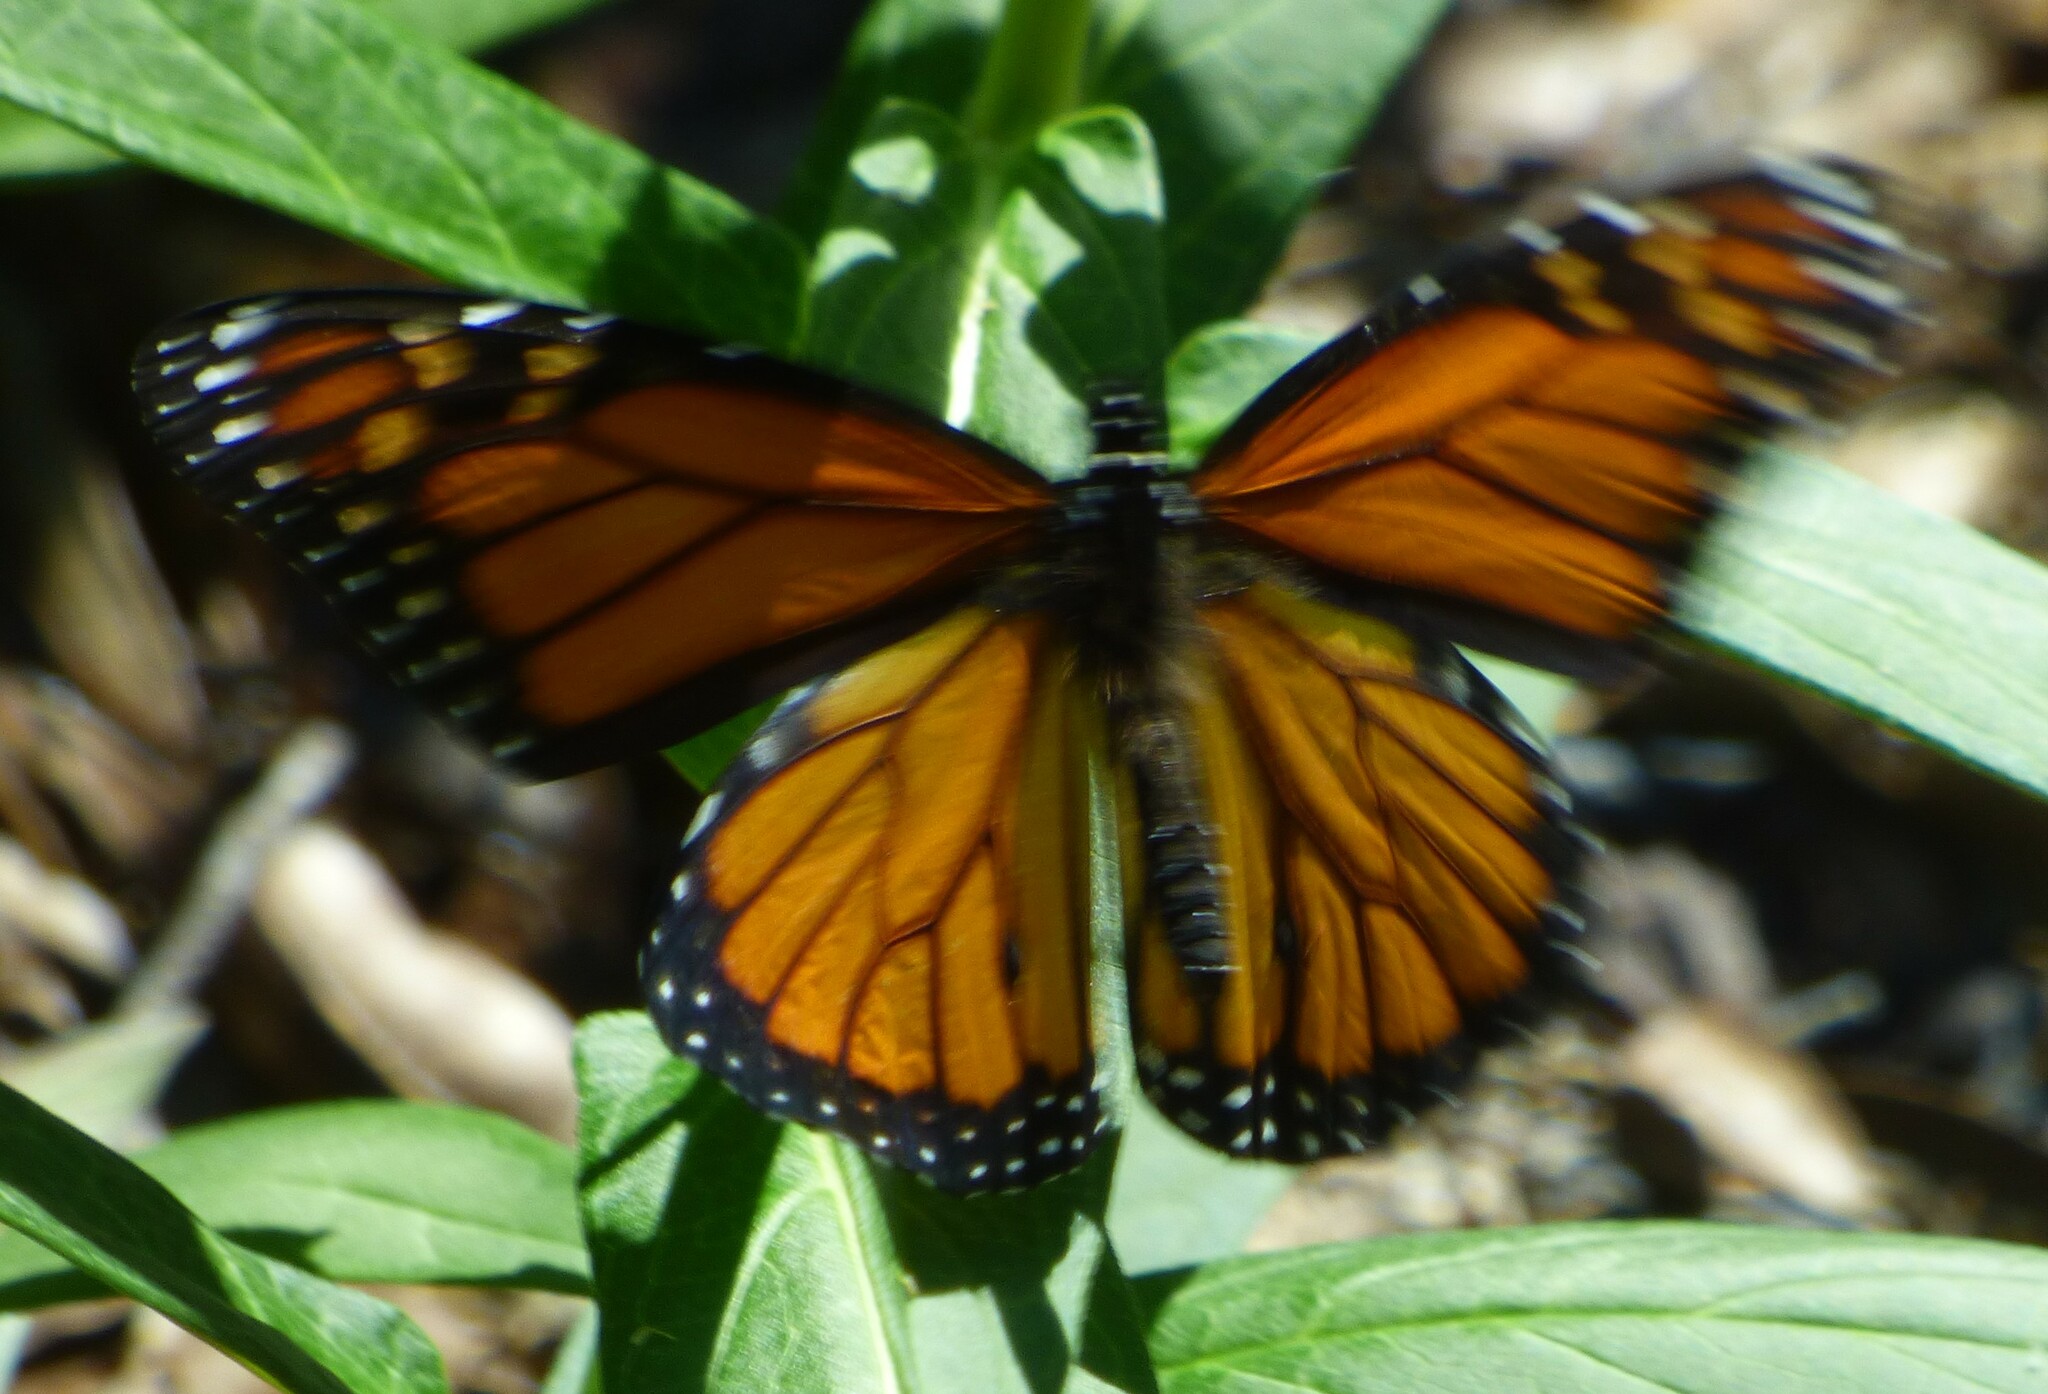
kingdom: Animalia
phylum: Arthropoda
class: Insecta
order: Lepidoptera
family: Nymphalidae
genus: Danaus
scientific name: Danaus plexippus
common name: Monarch
